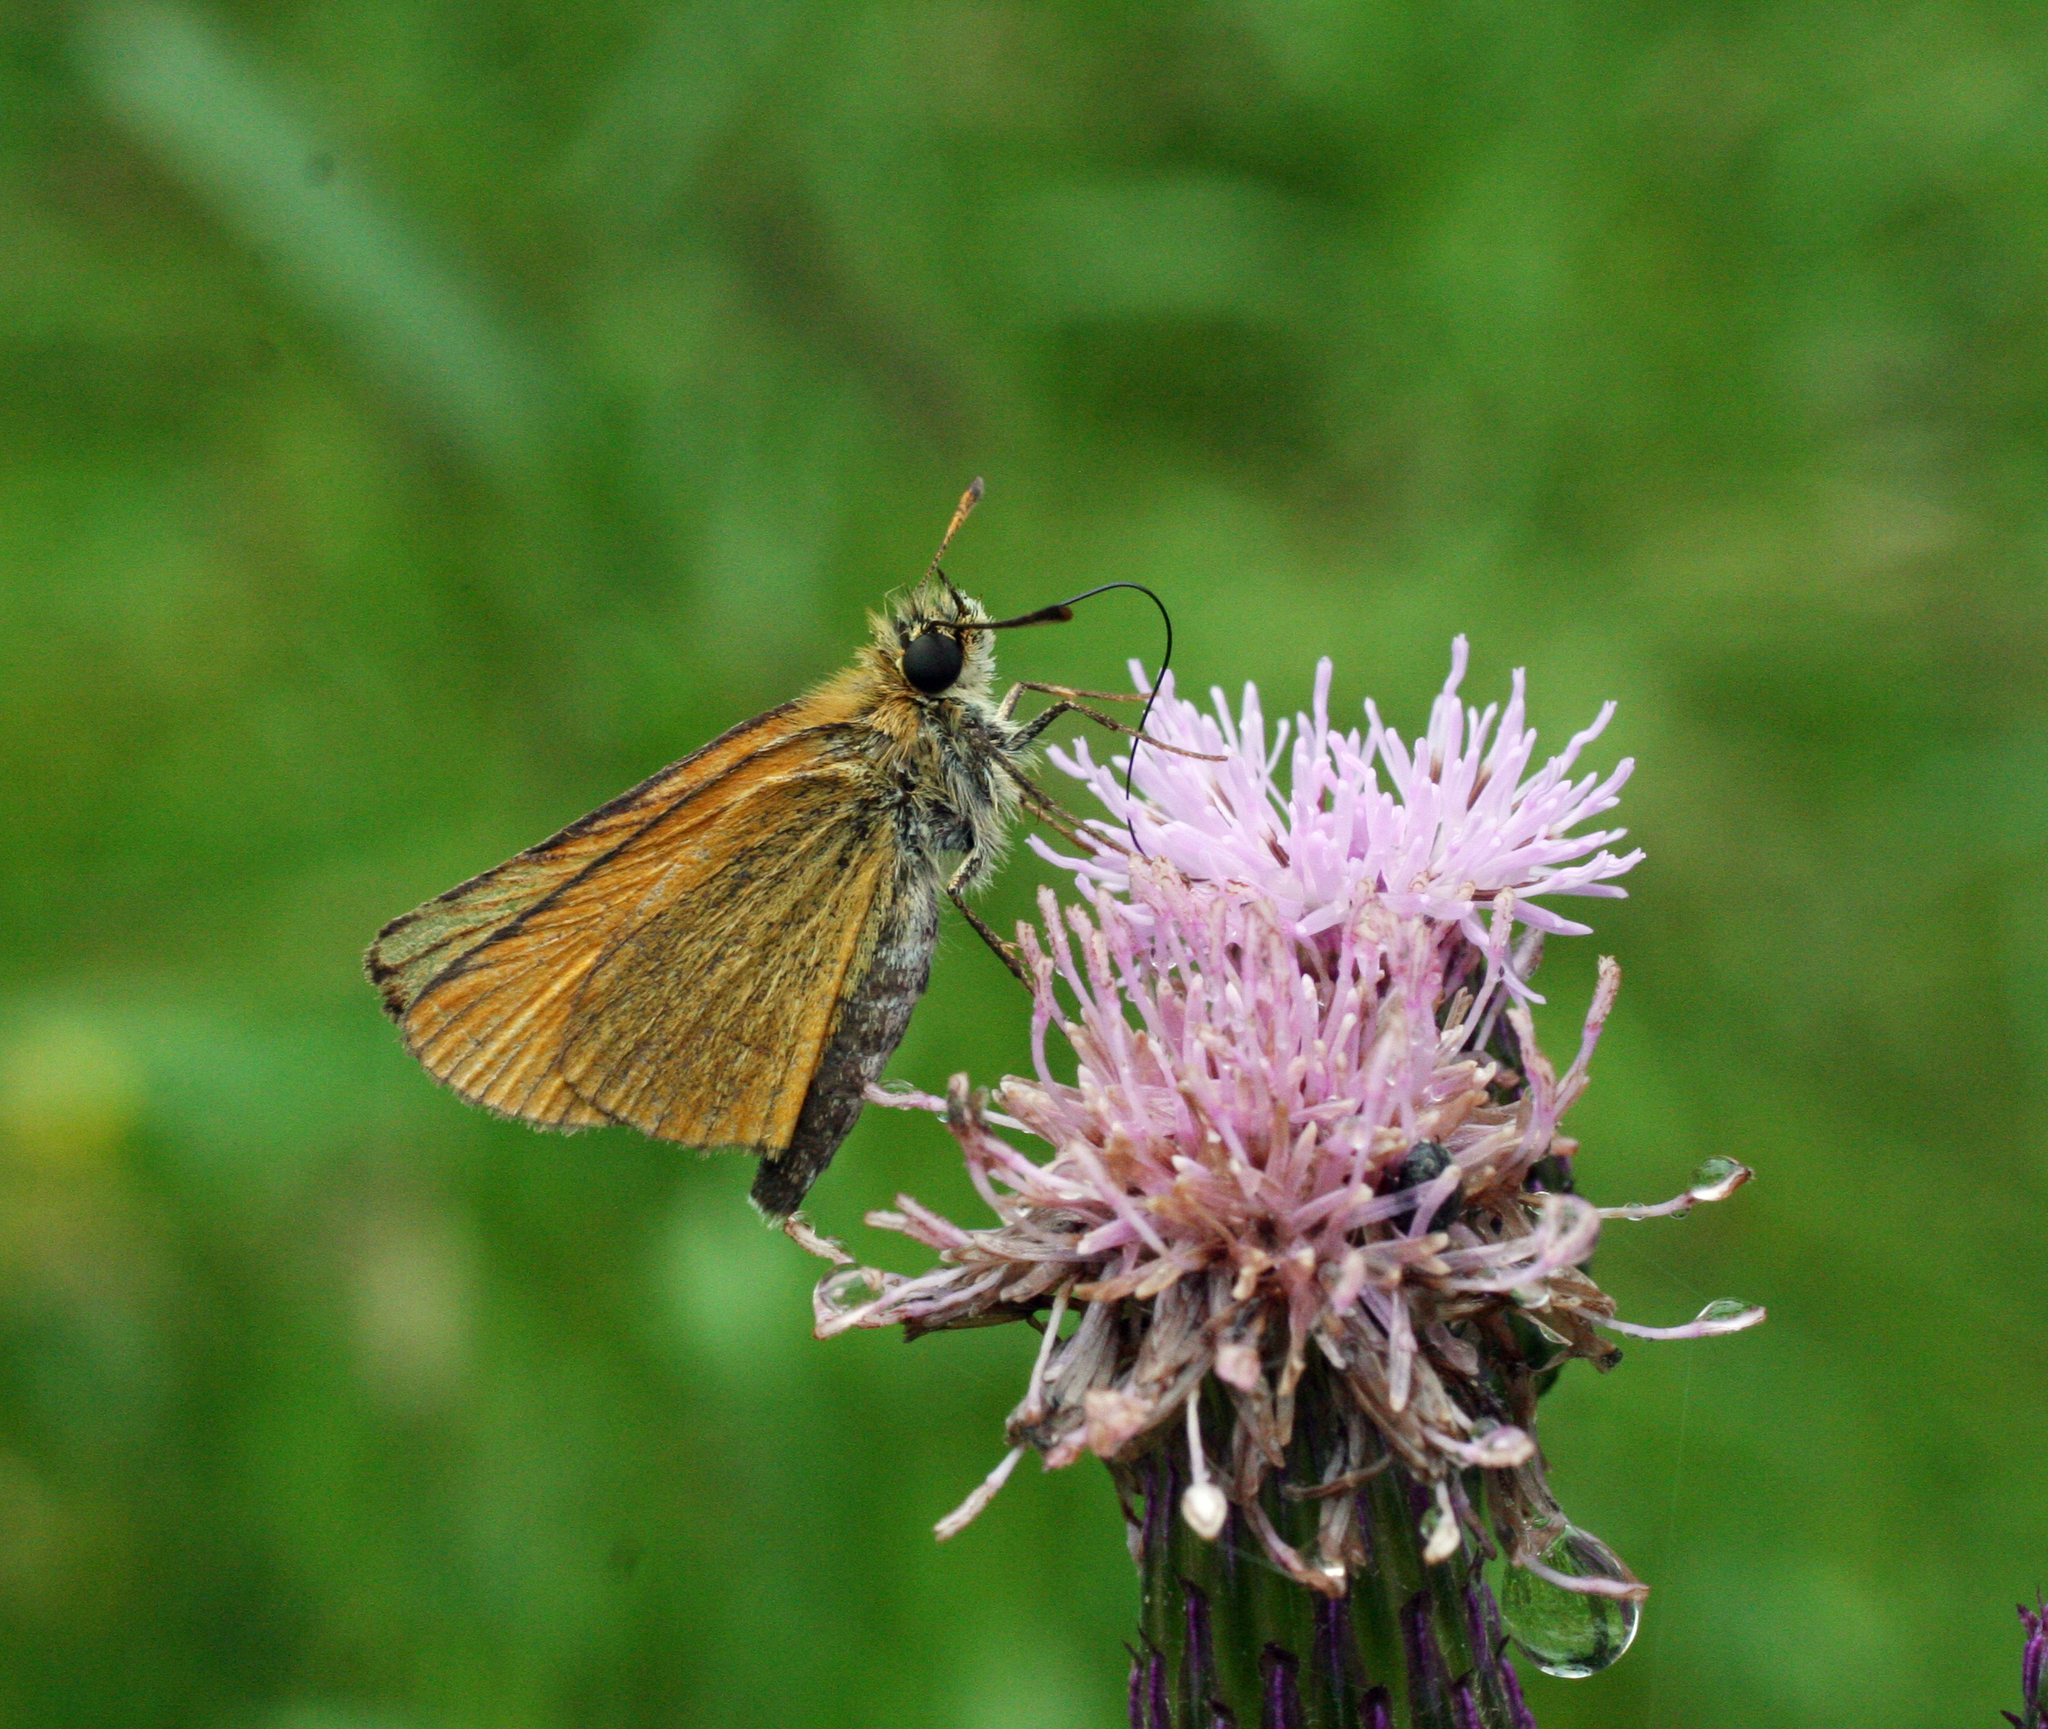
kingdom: Animalia
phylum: Arthropoda
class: Insecta
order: Lepidoptera
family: Hesperiidae
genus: Thymelicus
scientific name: Thymelicus lineola
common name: Essex skipper
